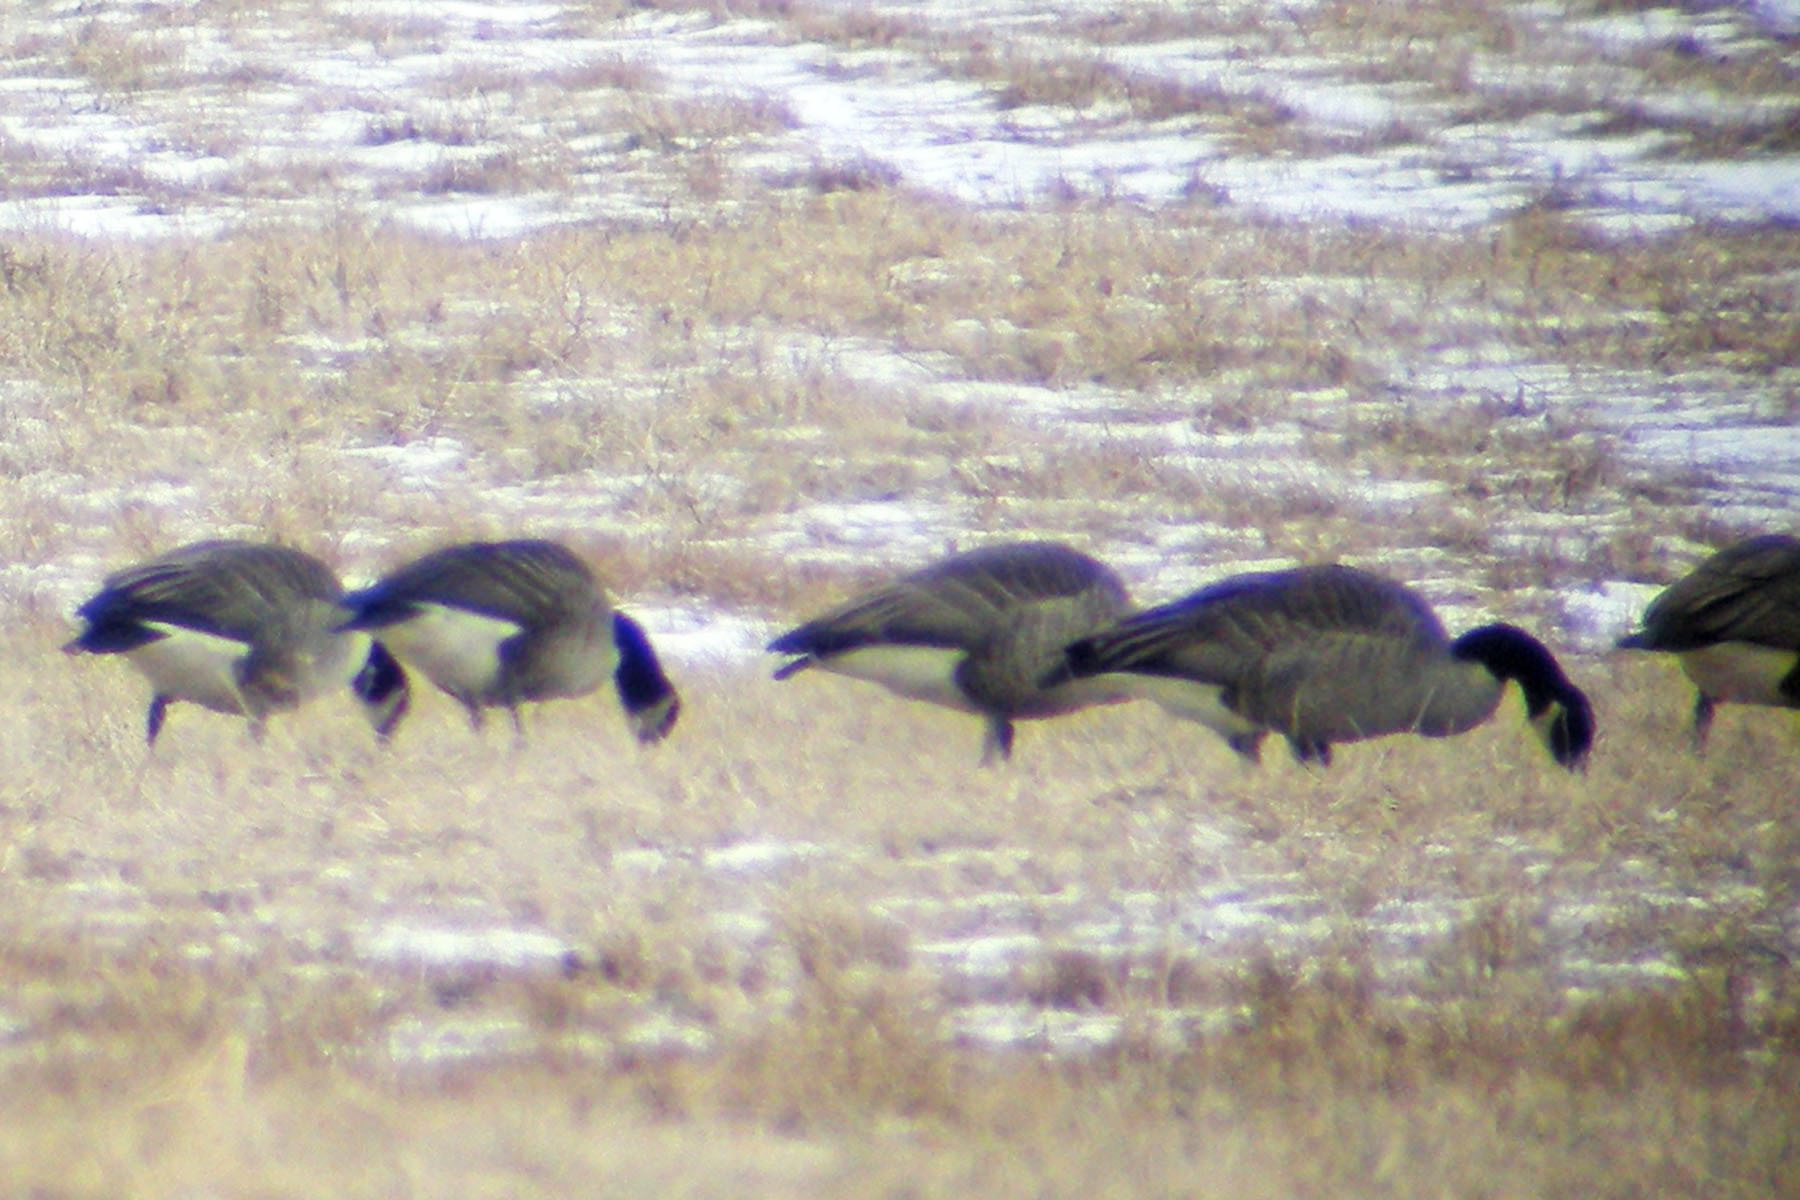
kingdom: Animalia
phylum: Chordata
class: Aves
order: Anseriformes
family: Anatidae
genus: Branta
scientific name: Branta canadensis
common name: Canada goose
